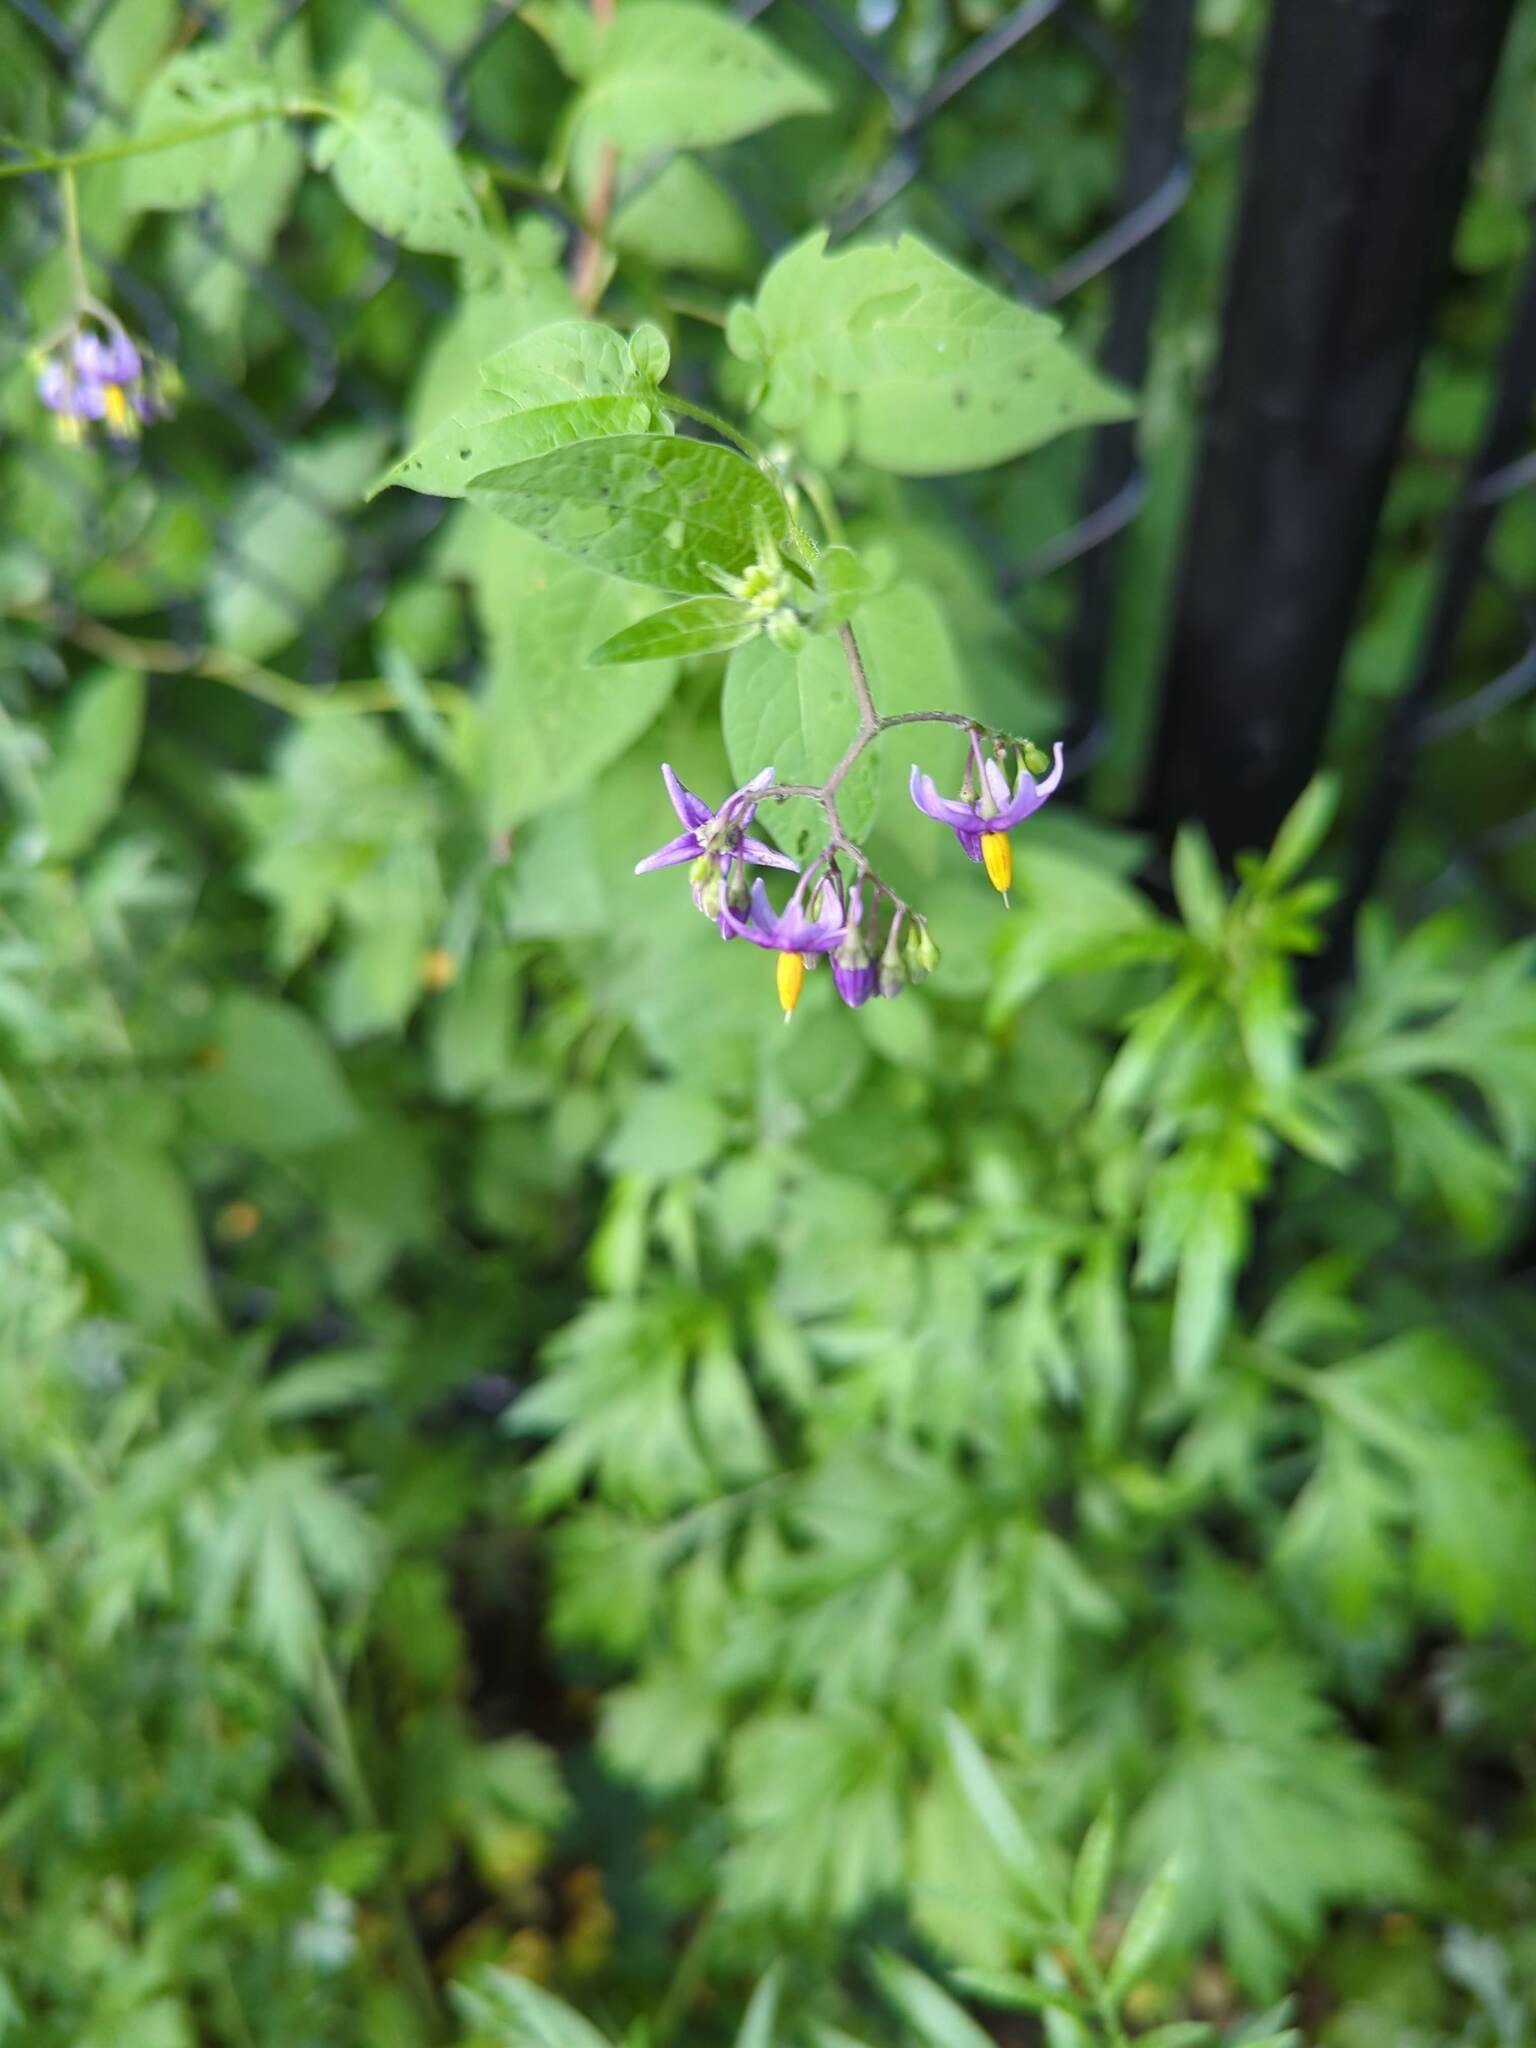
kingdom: Plantae
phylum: Tracheophyta
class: Magnoliopsida
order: Solanales
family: Solanaceae
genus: Solanum
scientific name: Solanum dulcamara
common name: Climbing nightshade
